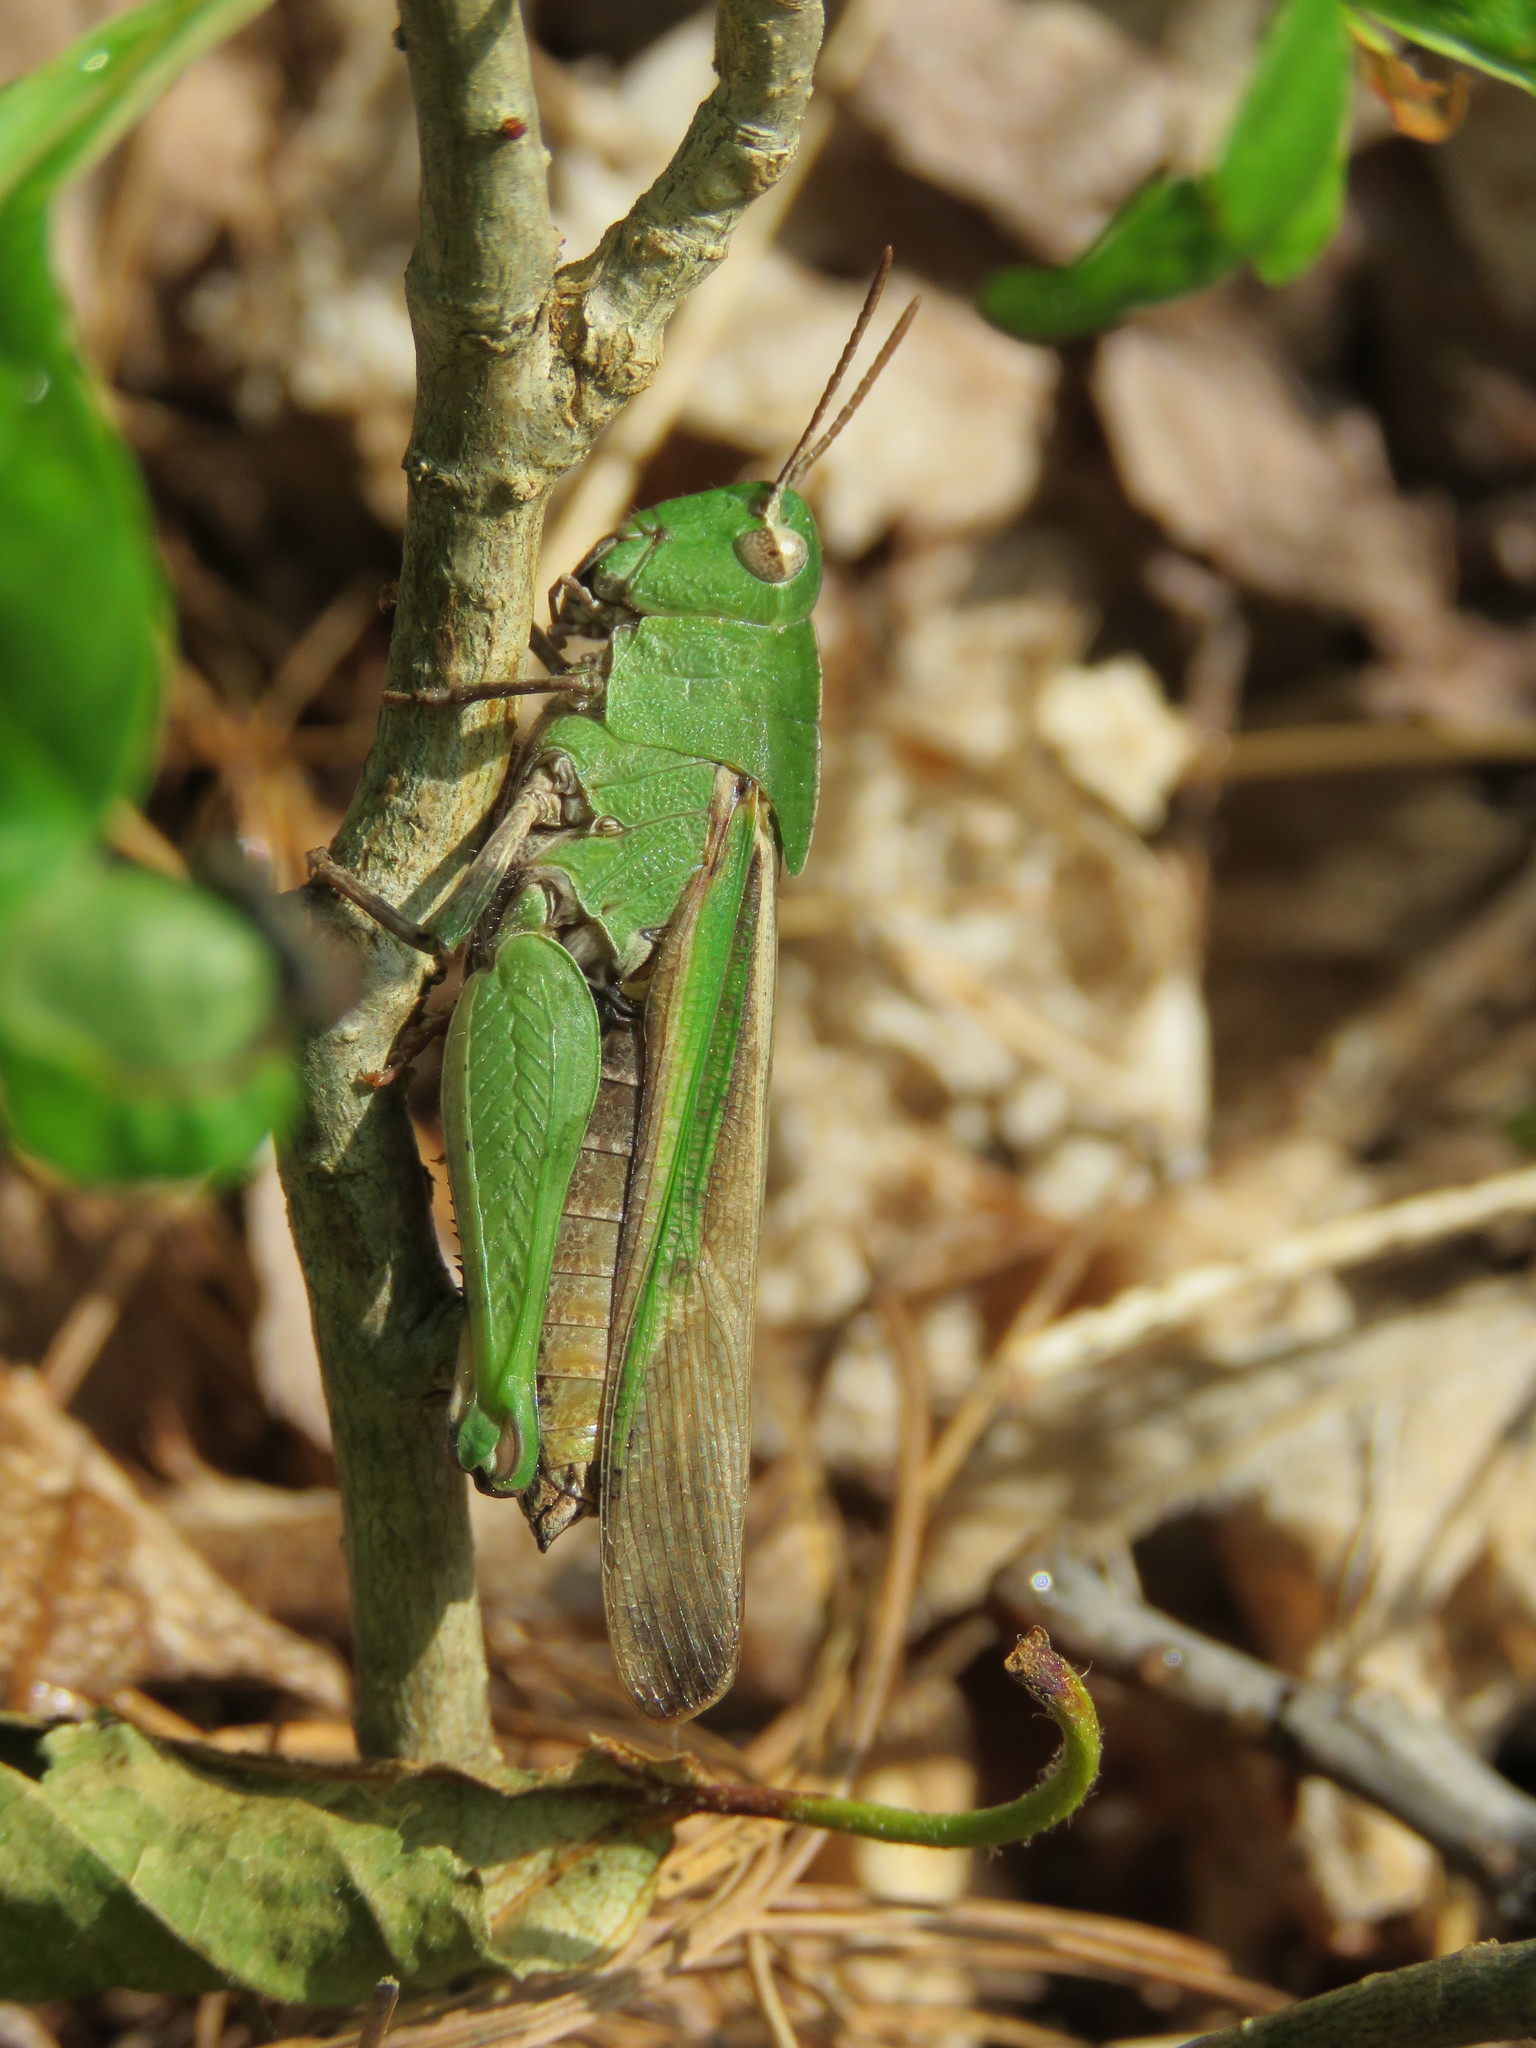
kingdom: Animalia
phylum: Arthropoda
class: Insecta
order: Orthoptera
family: Acrididae
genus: Chortophaga
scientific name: Chortophaga viridifasciata
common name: Green-striped grasshopper
